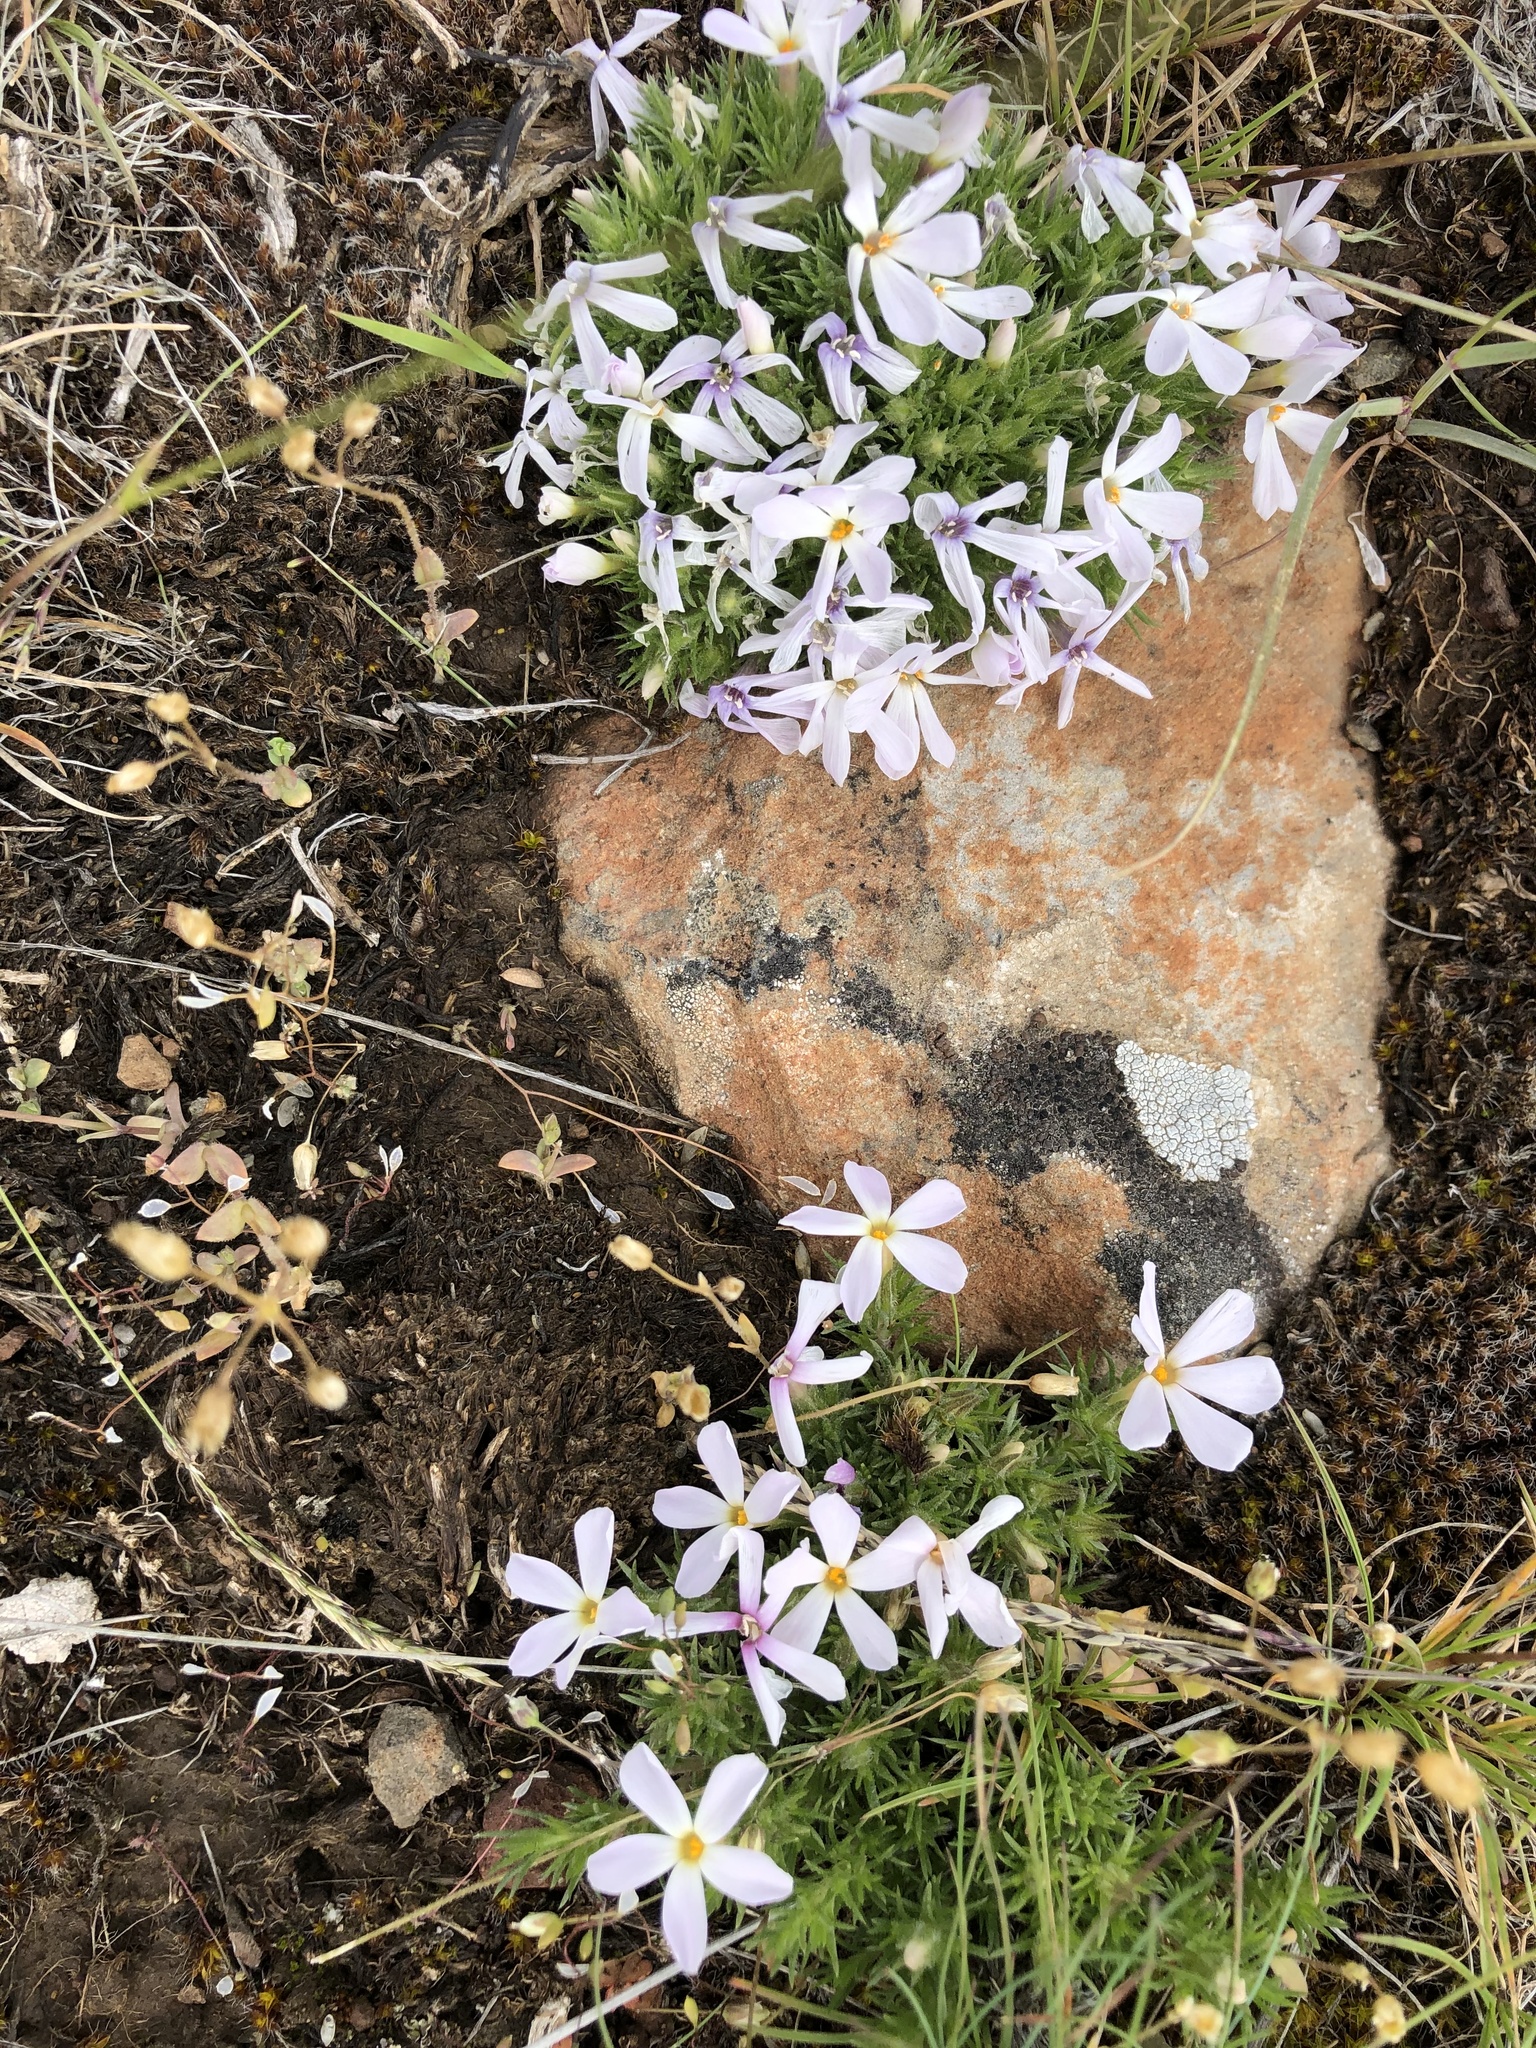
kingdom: Plantae
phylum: Tracheophyta
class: Magnoliopsida
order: Ericales
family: Polemoniaceae
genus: Phlox
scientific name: Phlox douglasii
